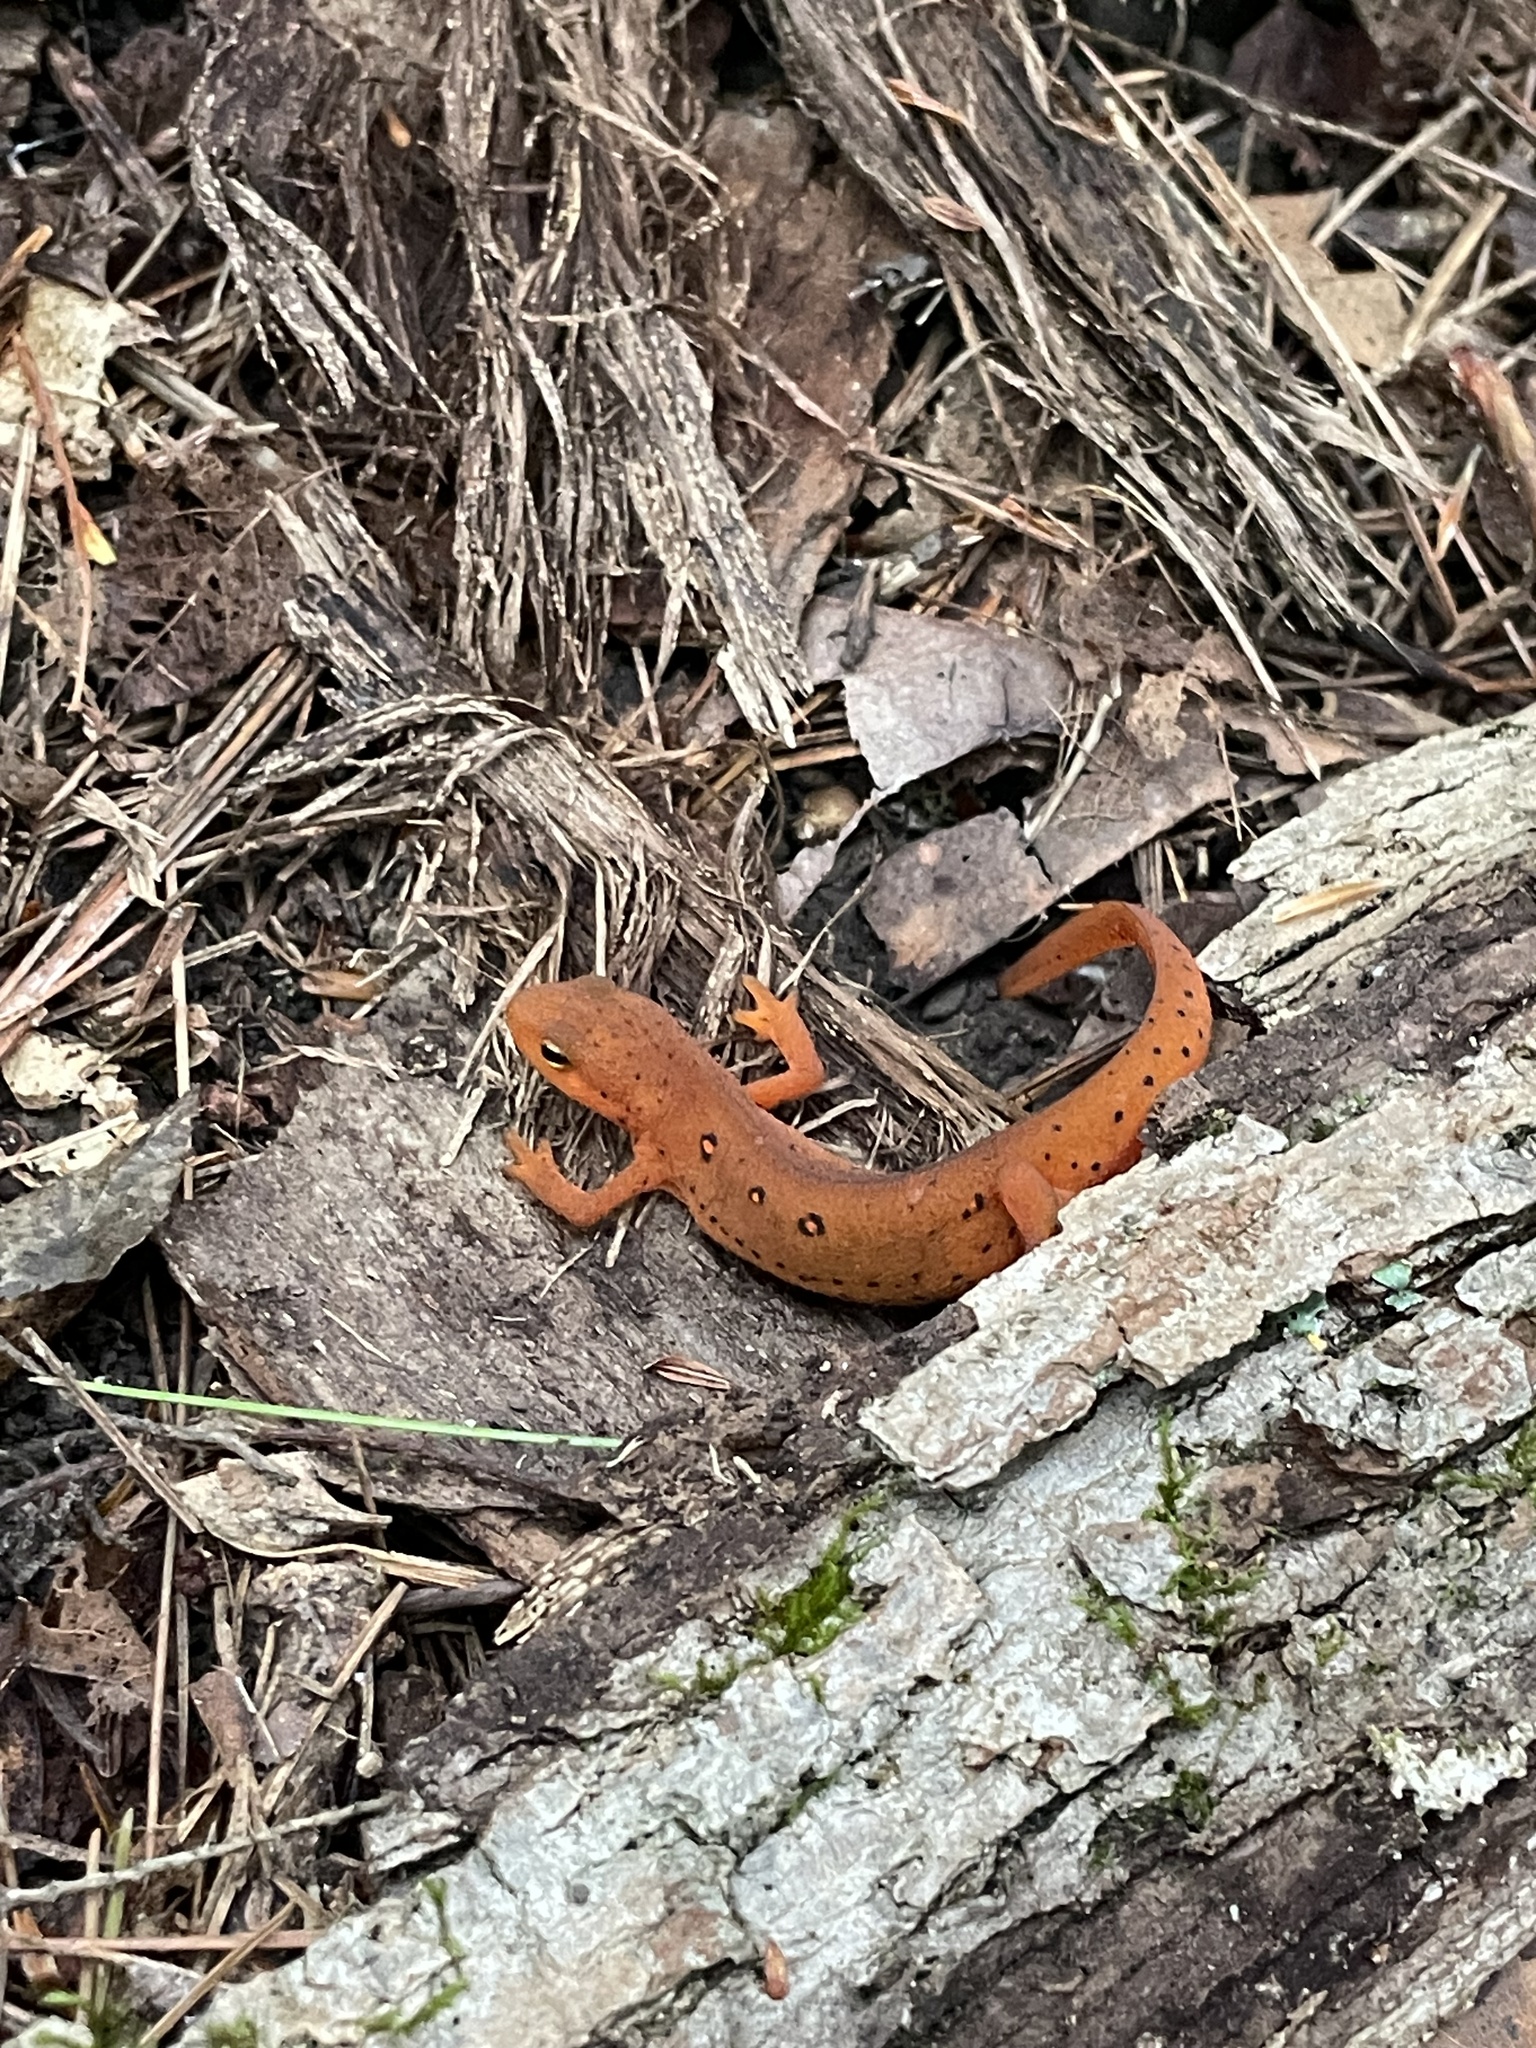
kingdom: Animalia
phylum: Chordata
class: Amphibia
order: Caudata
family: Salamandridae
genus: Notophthalmus
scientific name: Notophthalmus viridescens
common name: Eastern newt
